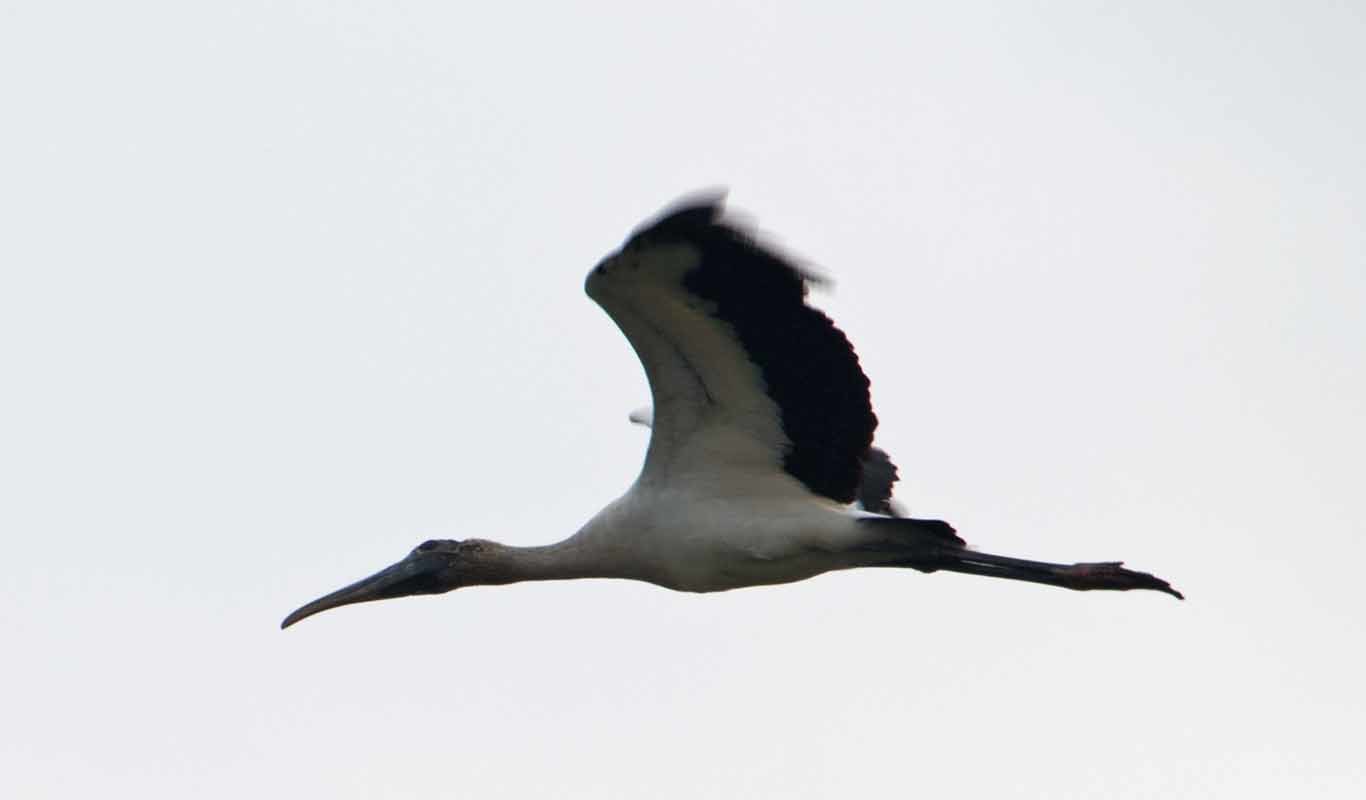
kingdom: Animalia
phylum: Chordata
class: Aves
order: Ciconiiformes
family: Ciconiidae
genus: Mycteria
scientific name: Mycteria americana
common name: Wood stork
